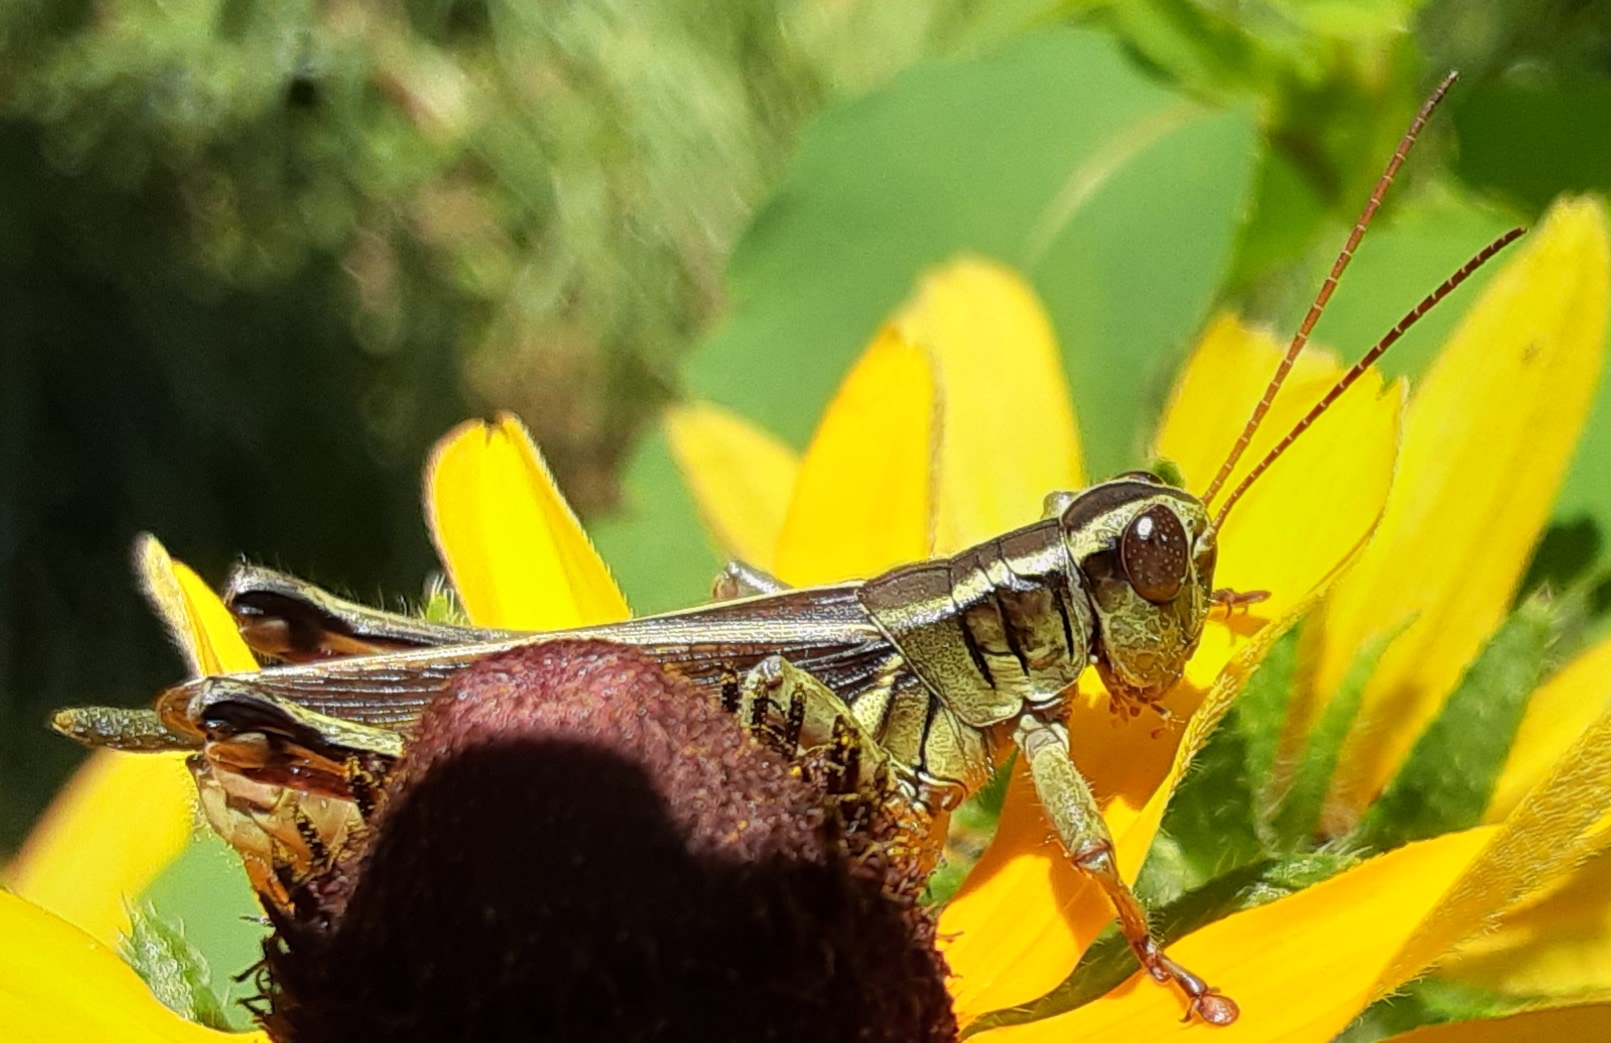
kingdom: Animalia
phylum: Arthropoda
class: Insecta
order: Orthoptera
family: Acrididae
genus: Melanoplus
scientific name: Melanoplus bivittatus
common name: Two-striped grasshopper
